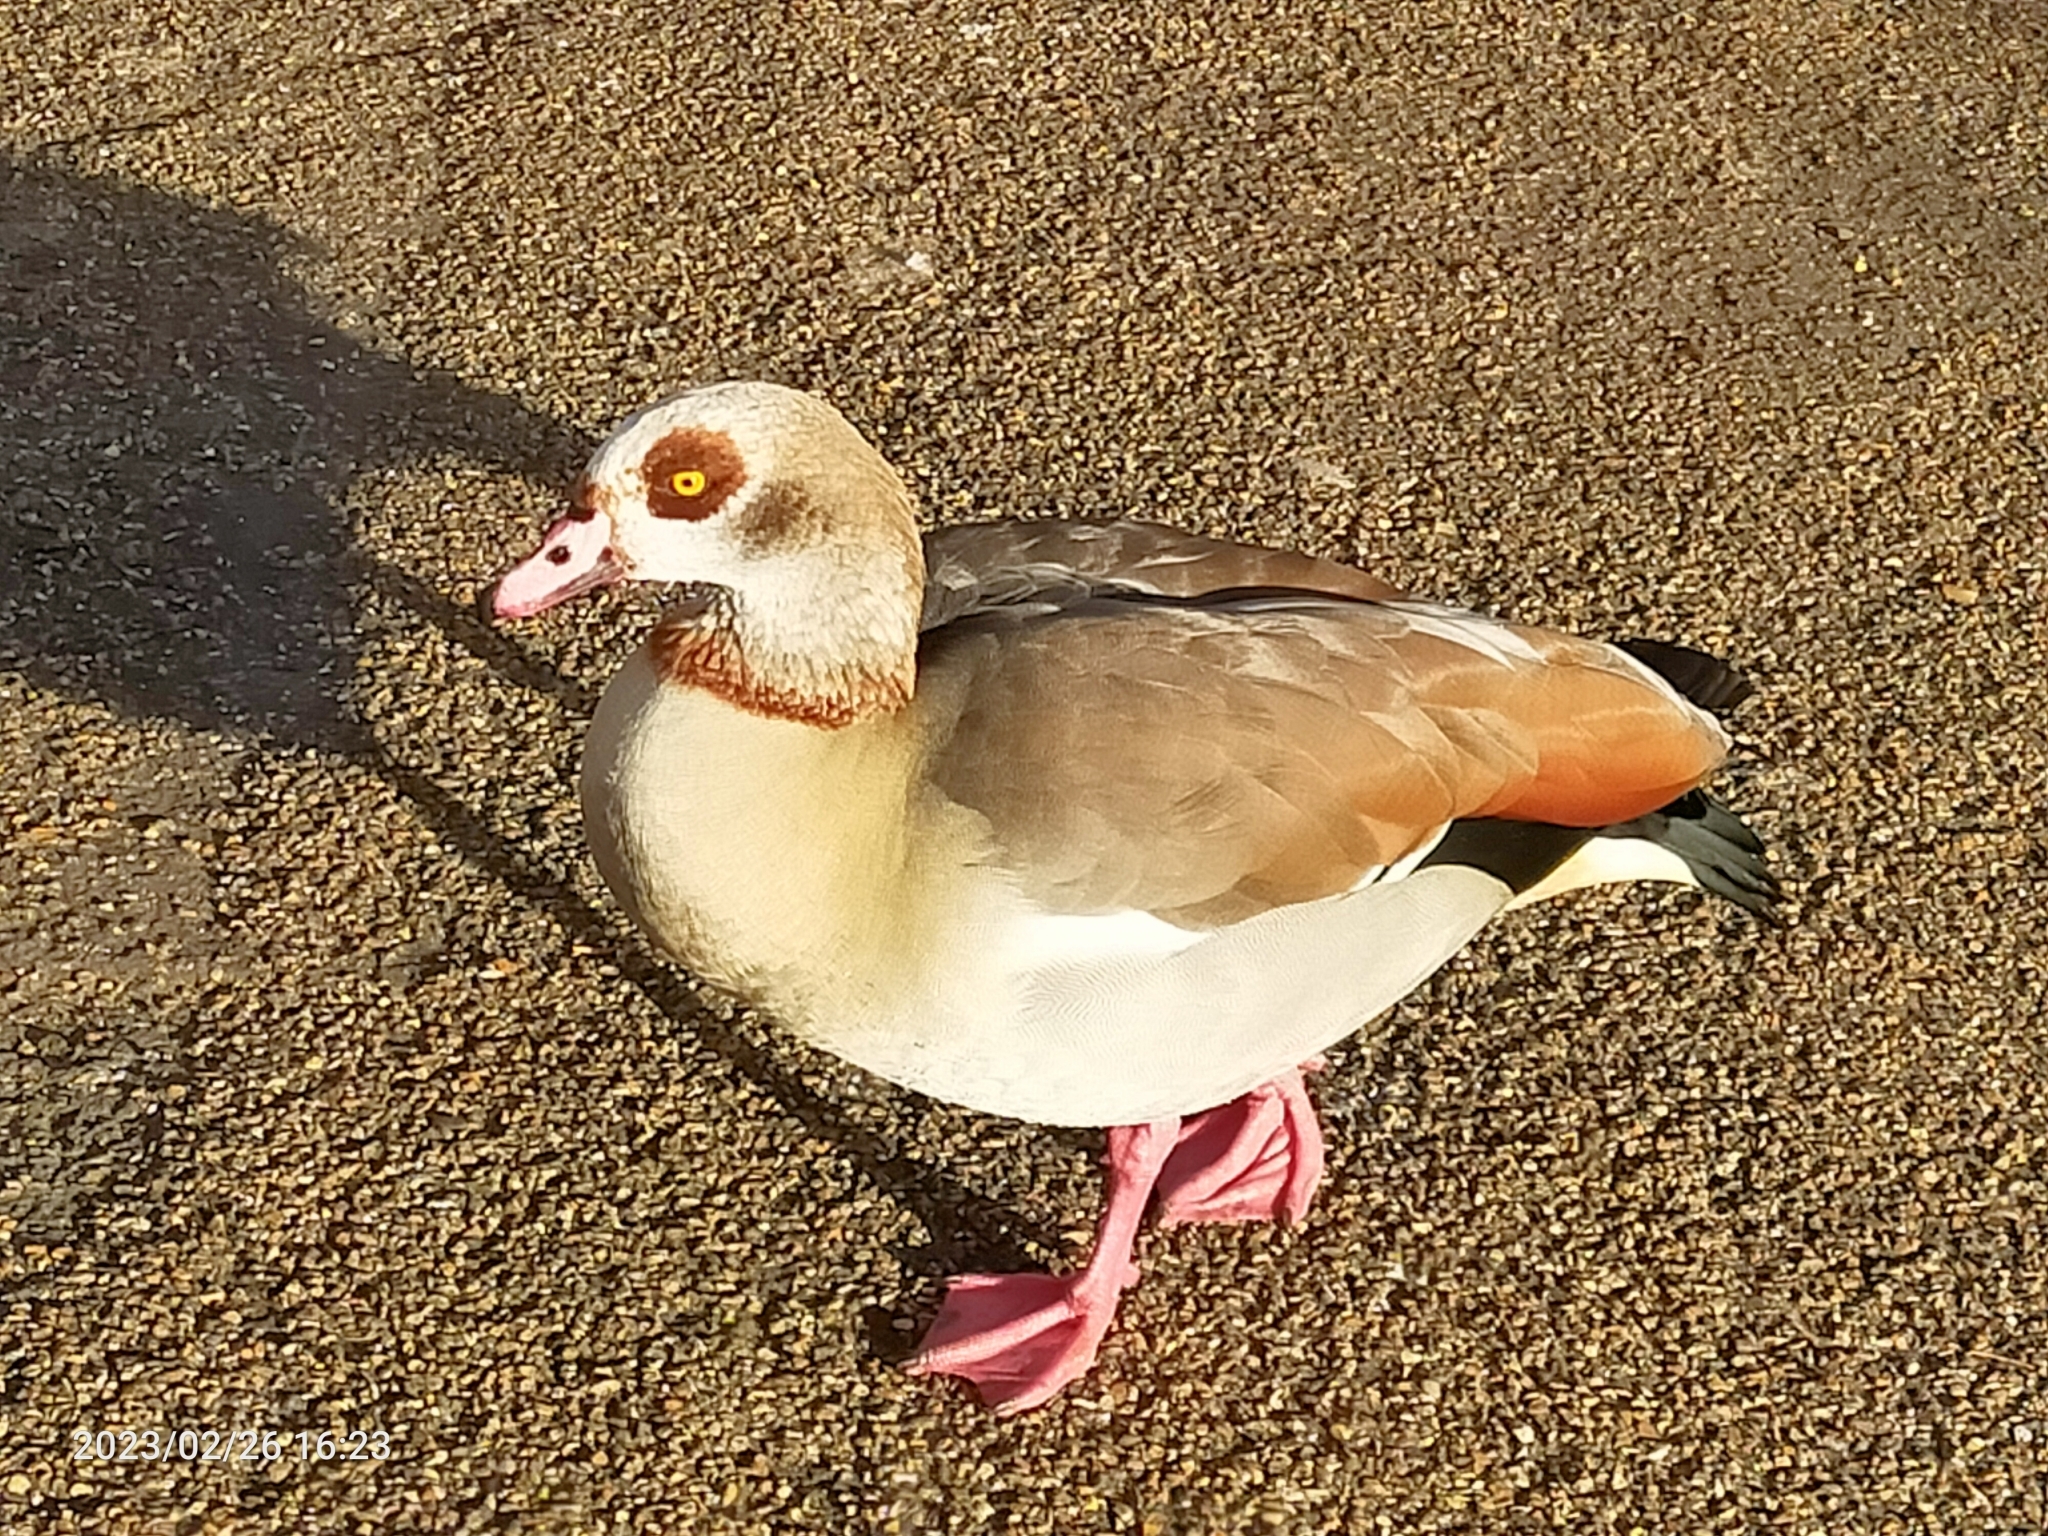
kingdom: Animalia
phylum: Chordata
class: Aves
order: Anseriformes
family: Anatidae
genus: Alopochen
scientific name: Alopochen aegyptiaca
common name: Egyptian goose
